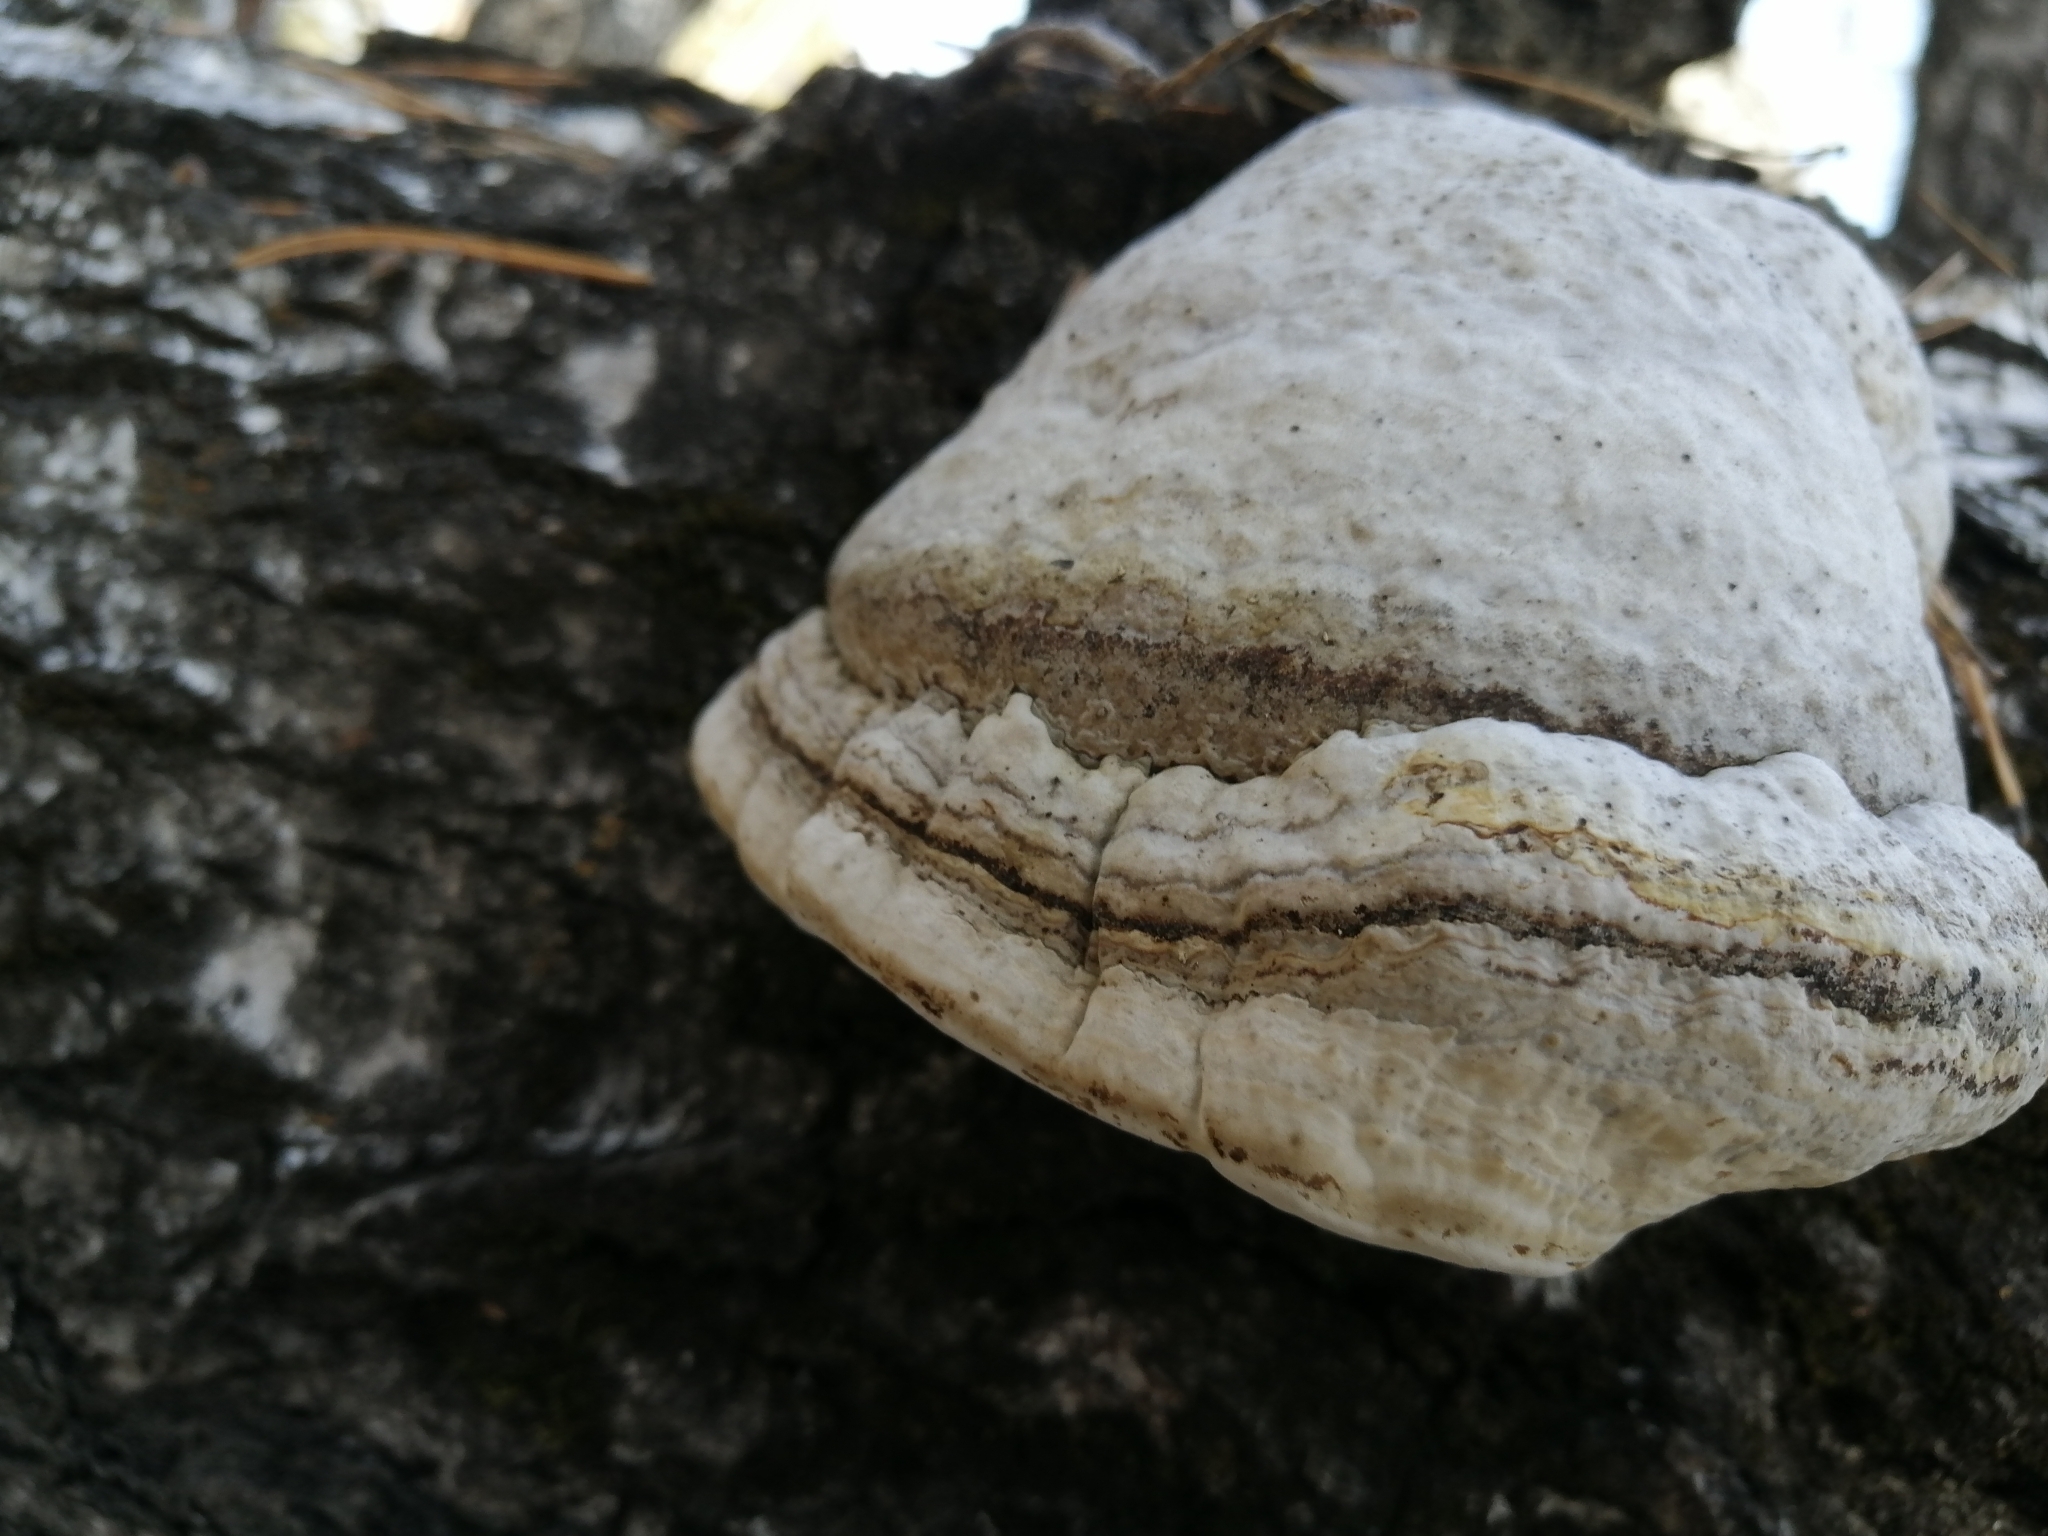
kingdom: Fungi
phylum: Basidiomycota
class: Agaricomycetes
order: Polyporales
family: Polyporaceae
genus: Fomes
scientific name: Fomes fomentarius
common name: Hoof fungus
